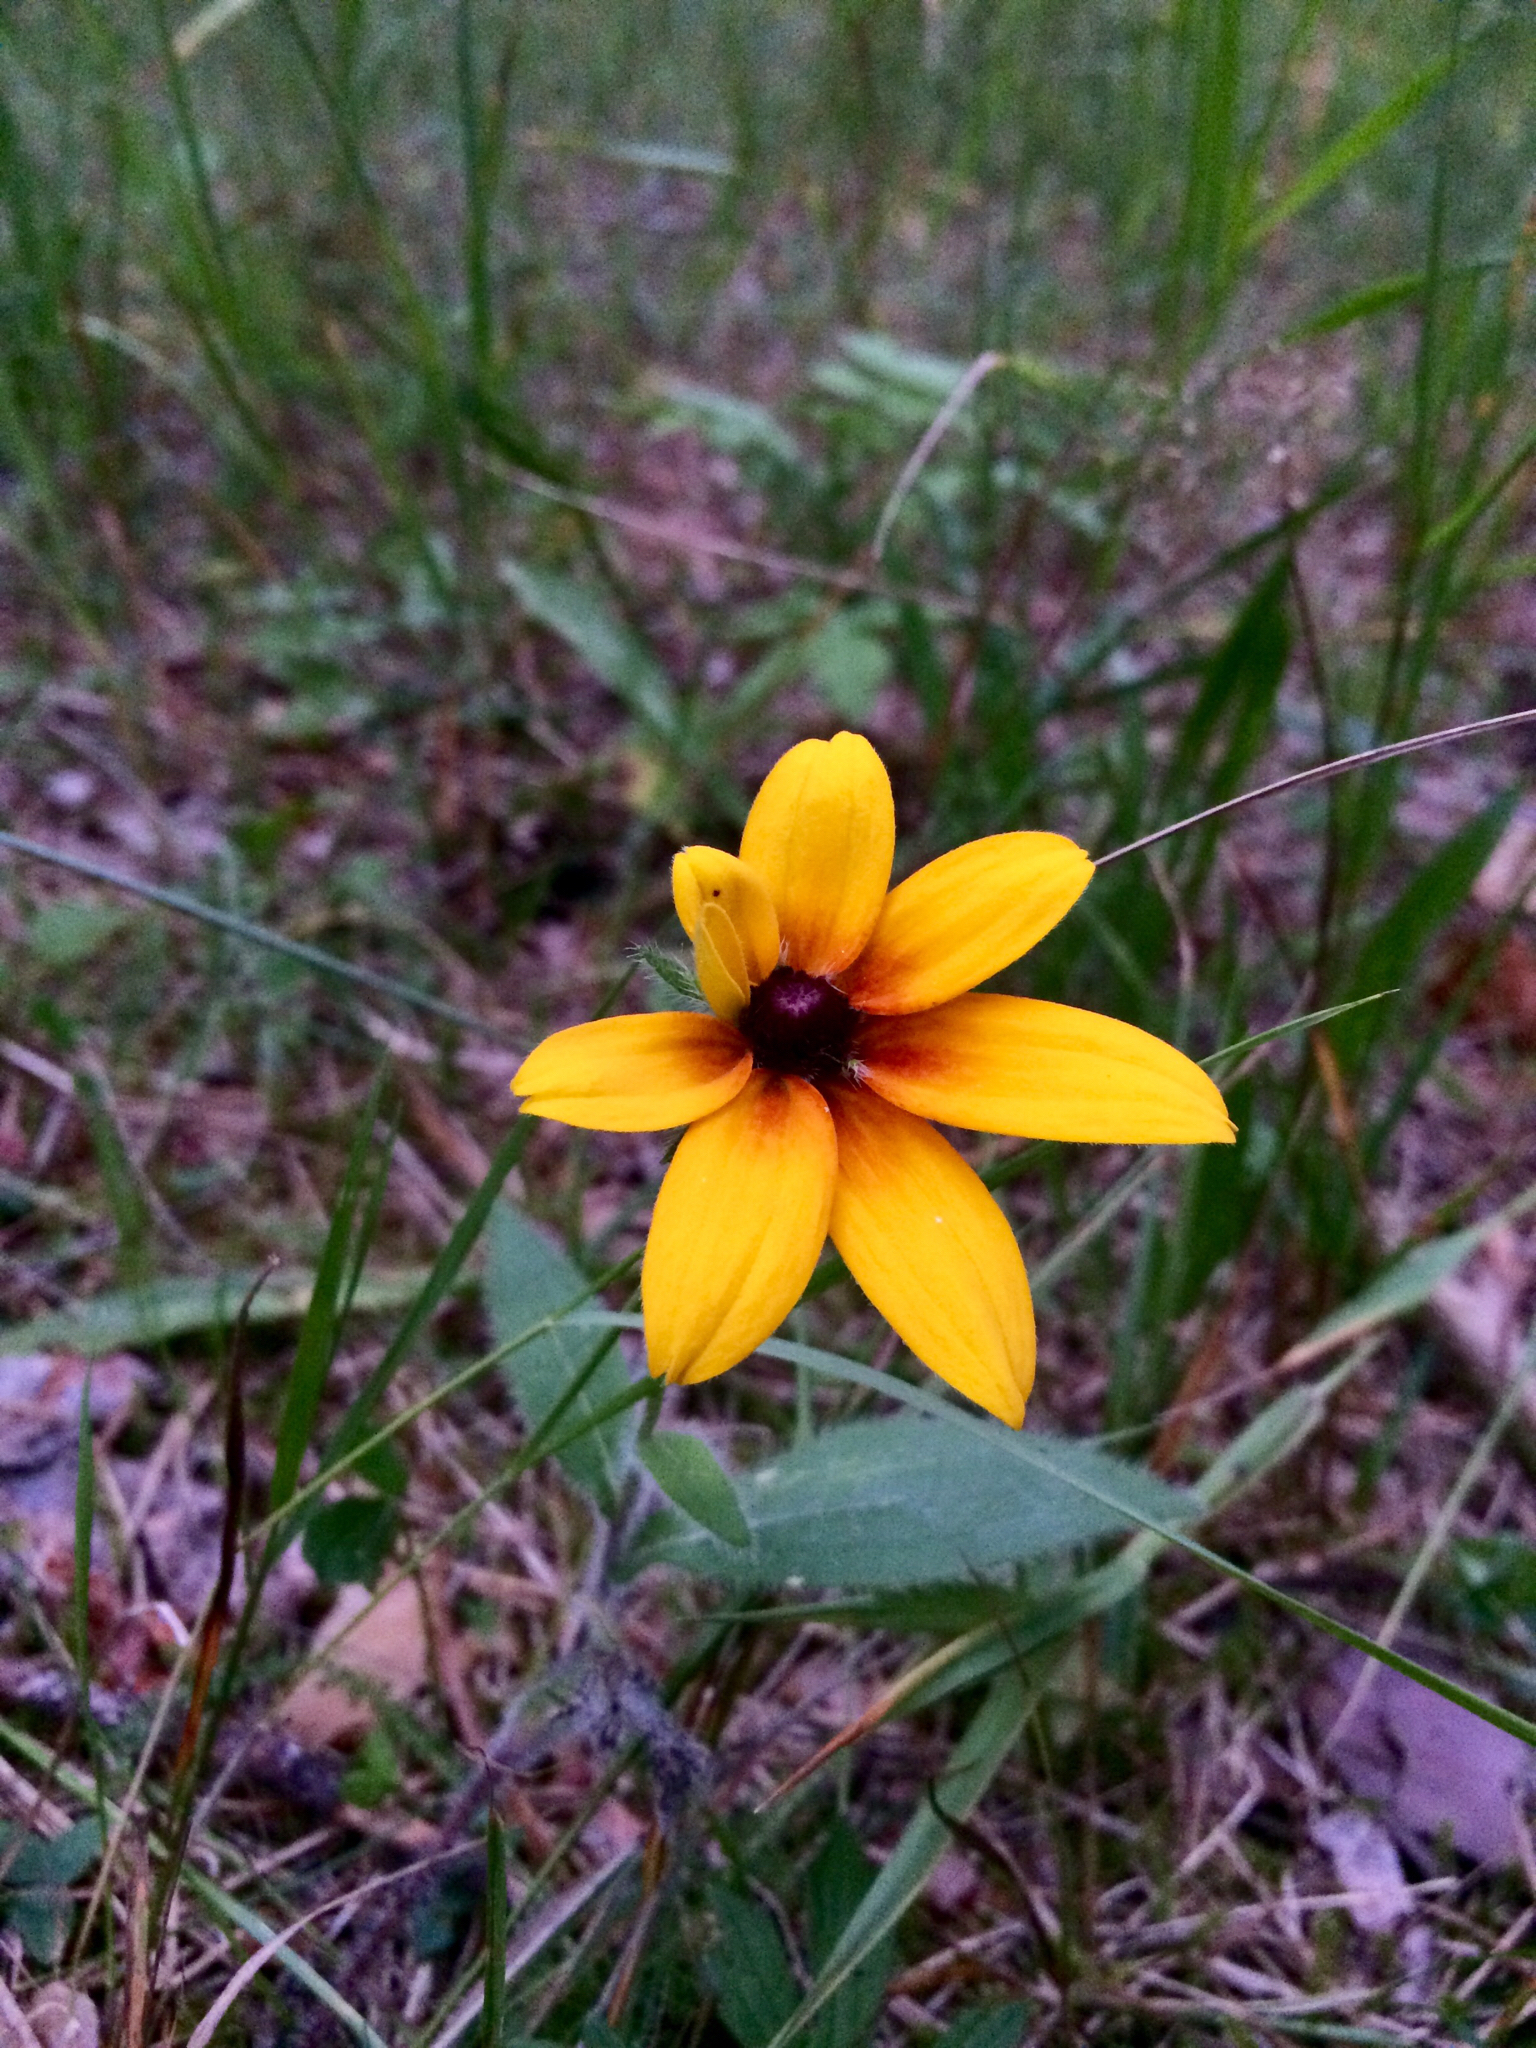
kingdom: Plantae
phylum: Tracheophyta
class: Magnoliopsida
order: Asterales
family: Asteraceae
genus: Rudbeckia
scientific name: Rudbeckia hirta
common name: Black-eyed-susan
